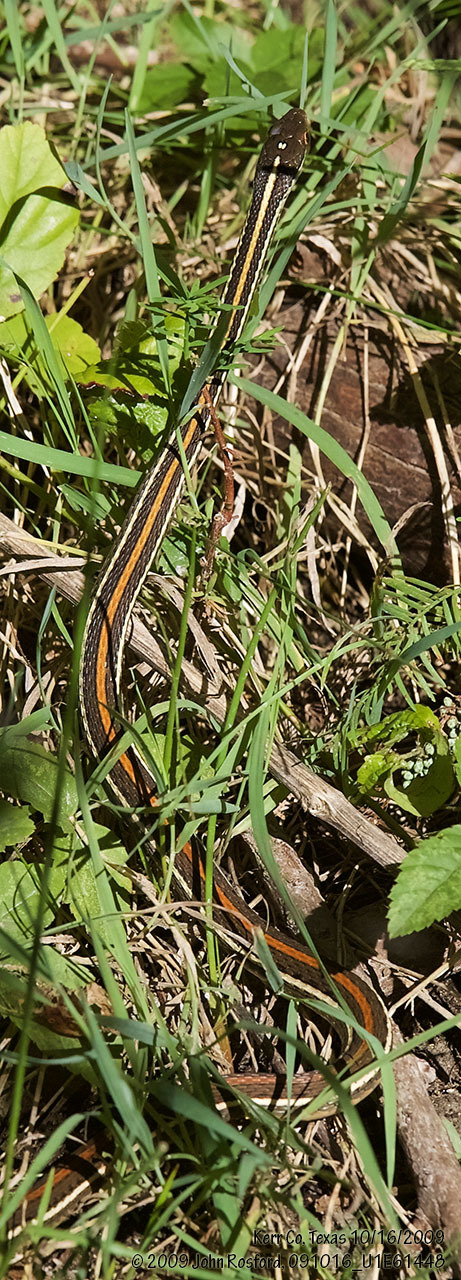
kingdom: Animalia
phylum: Chordata
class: Squamata
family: Colubridae
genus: Thamnophis
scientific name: Thamnophis proximus
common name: Western ribbon snake
